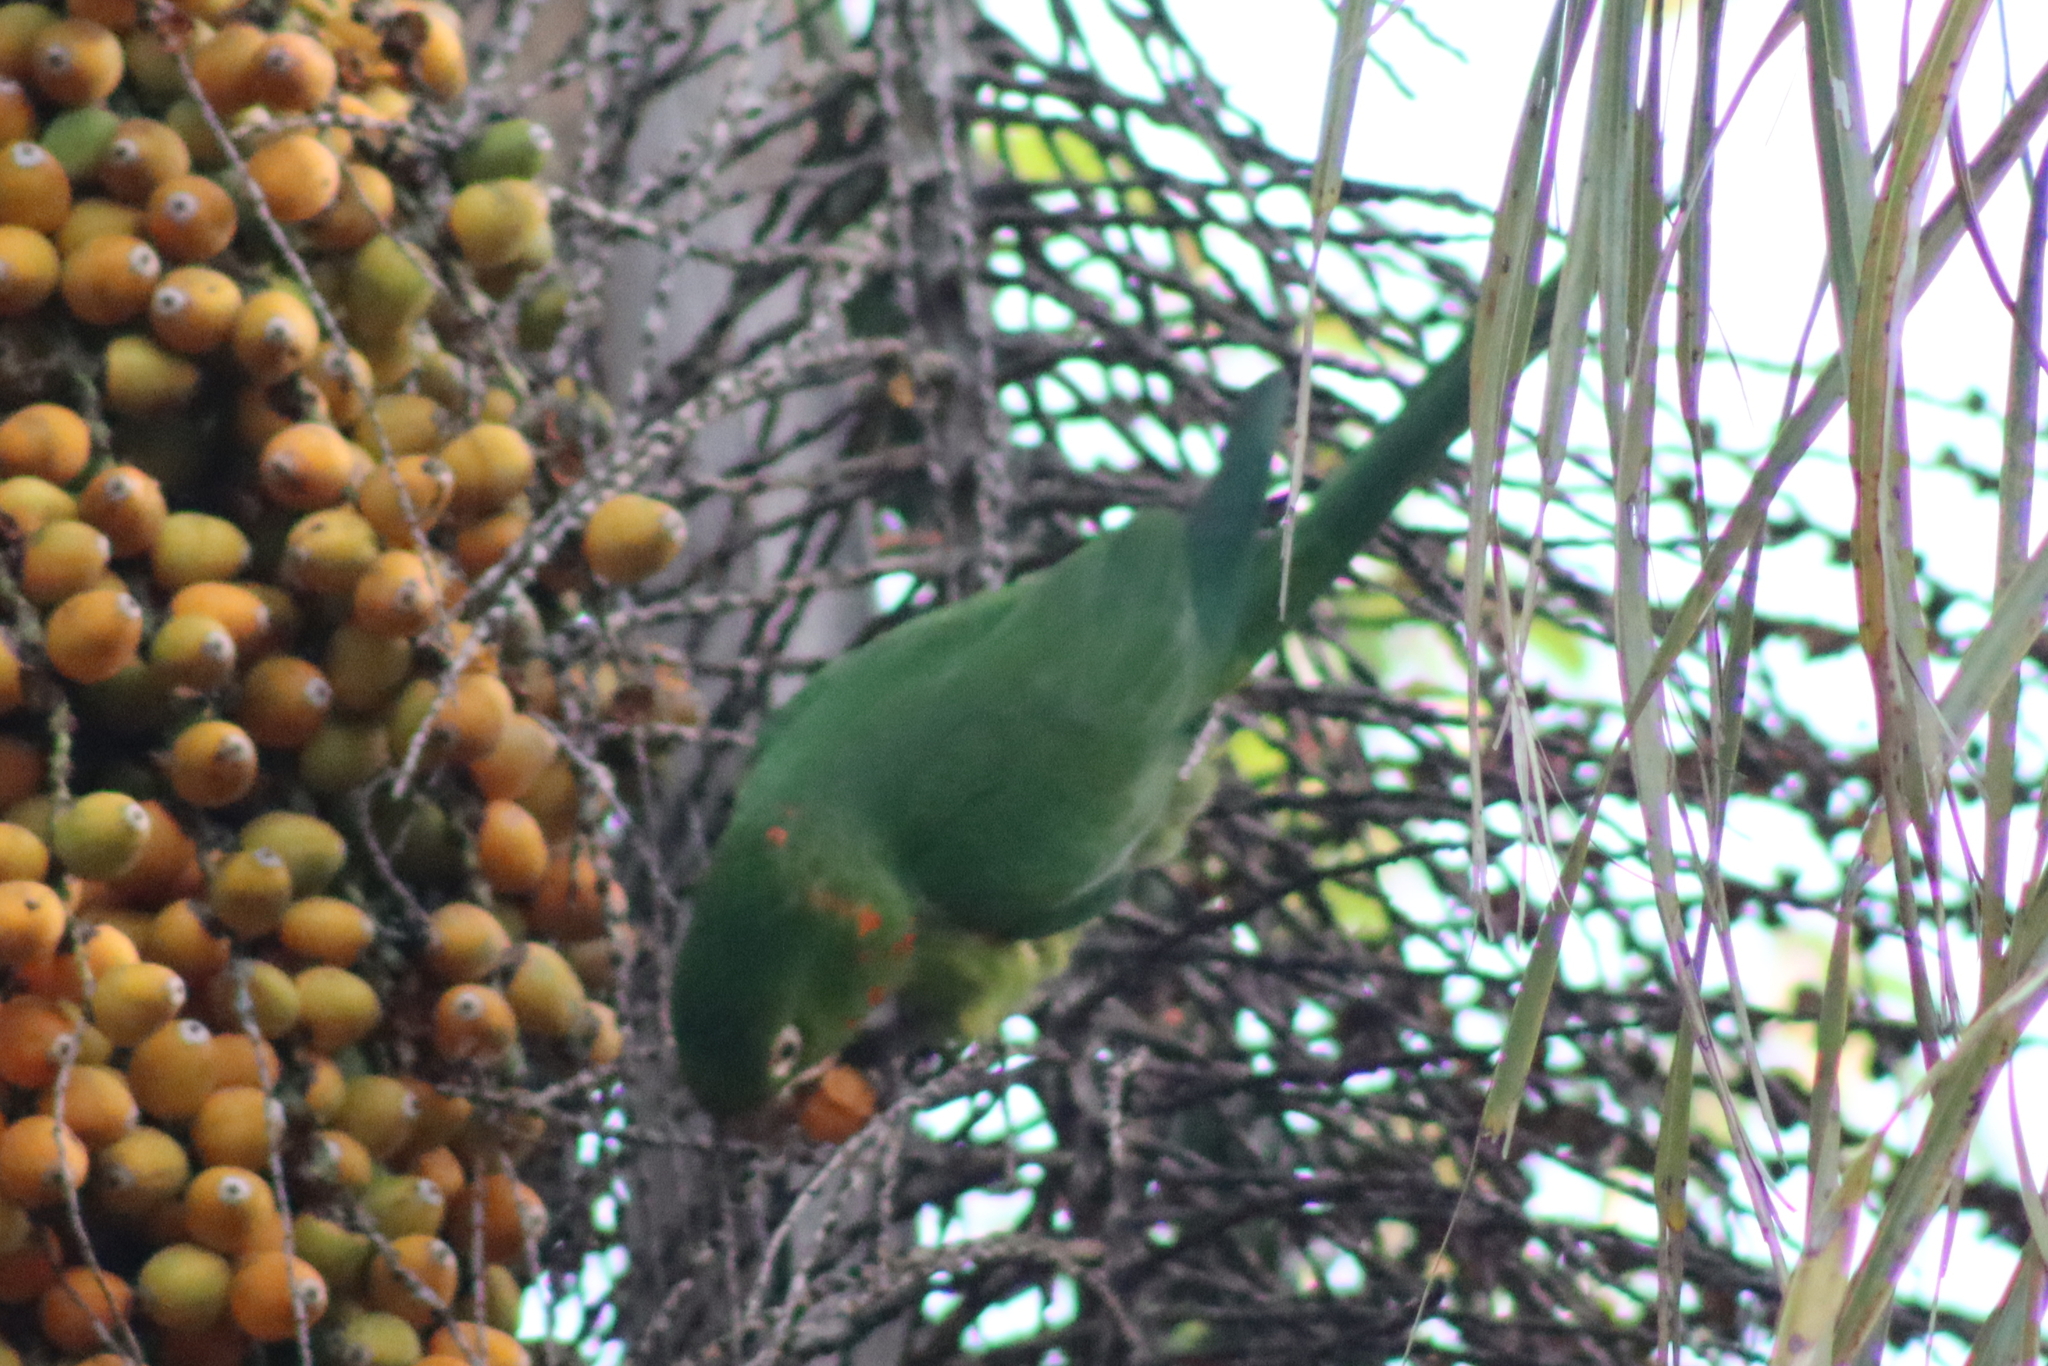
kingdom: Animalia
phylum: Chordata
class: Aves
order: Psittaciformes
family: Psittacidae
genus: Aratinga
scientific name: Aratinga leucophthalma
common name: White-eyed parakeet
